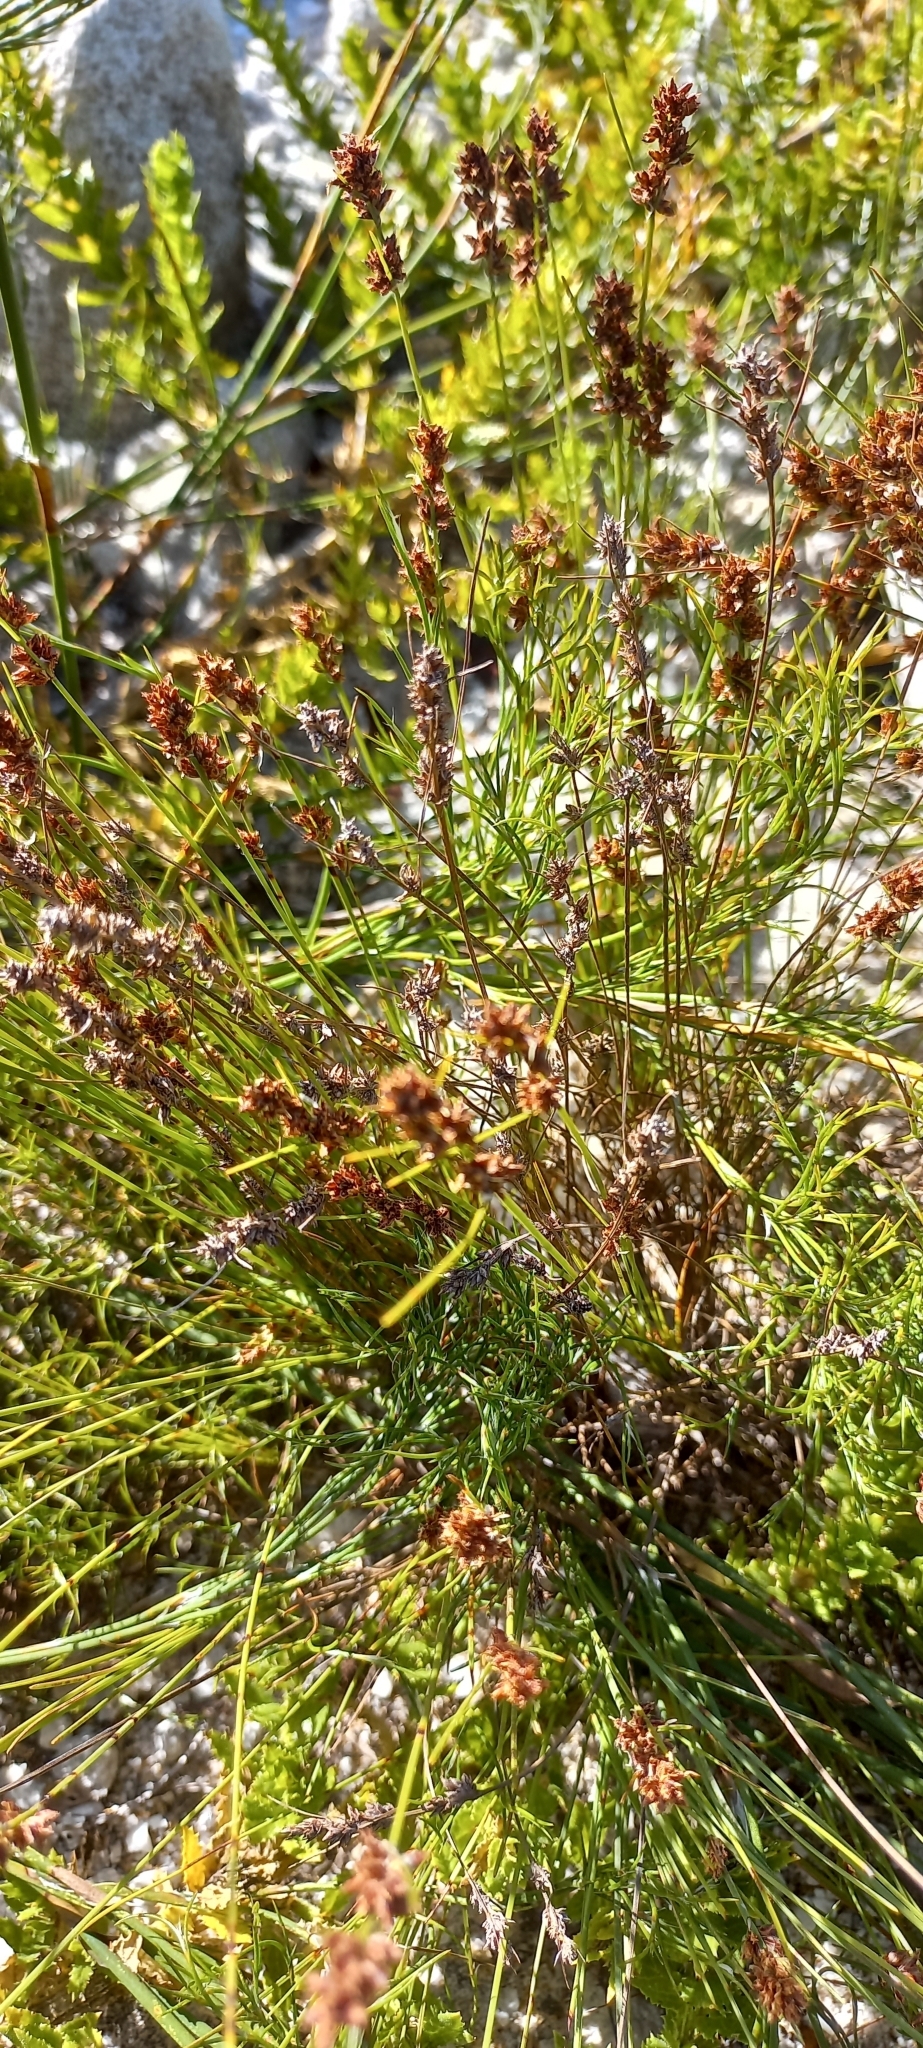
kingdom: Plantae
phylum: Tracheophyta
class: Liliopsida
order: Poales
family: Cyperaceae
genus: Ficinia
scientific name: Ficinia bulbosa
